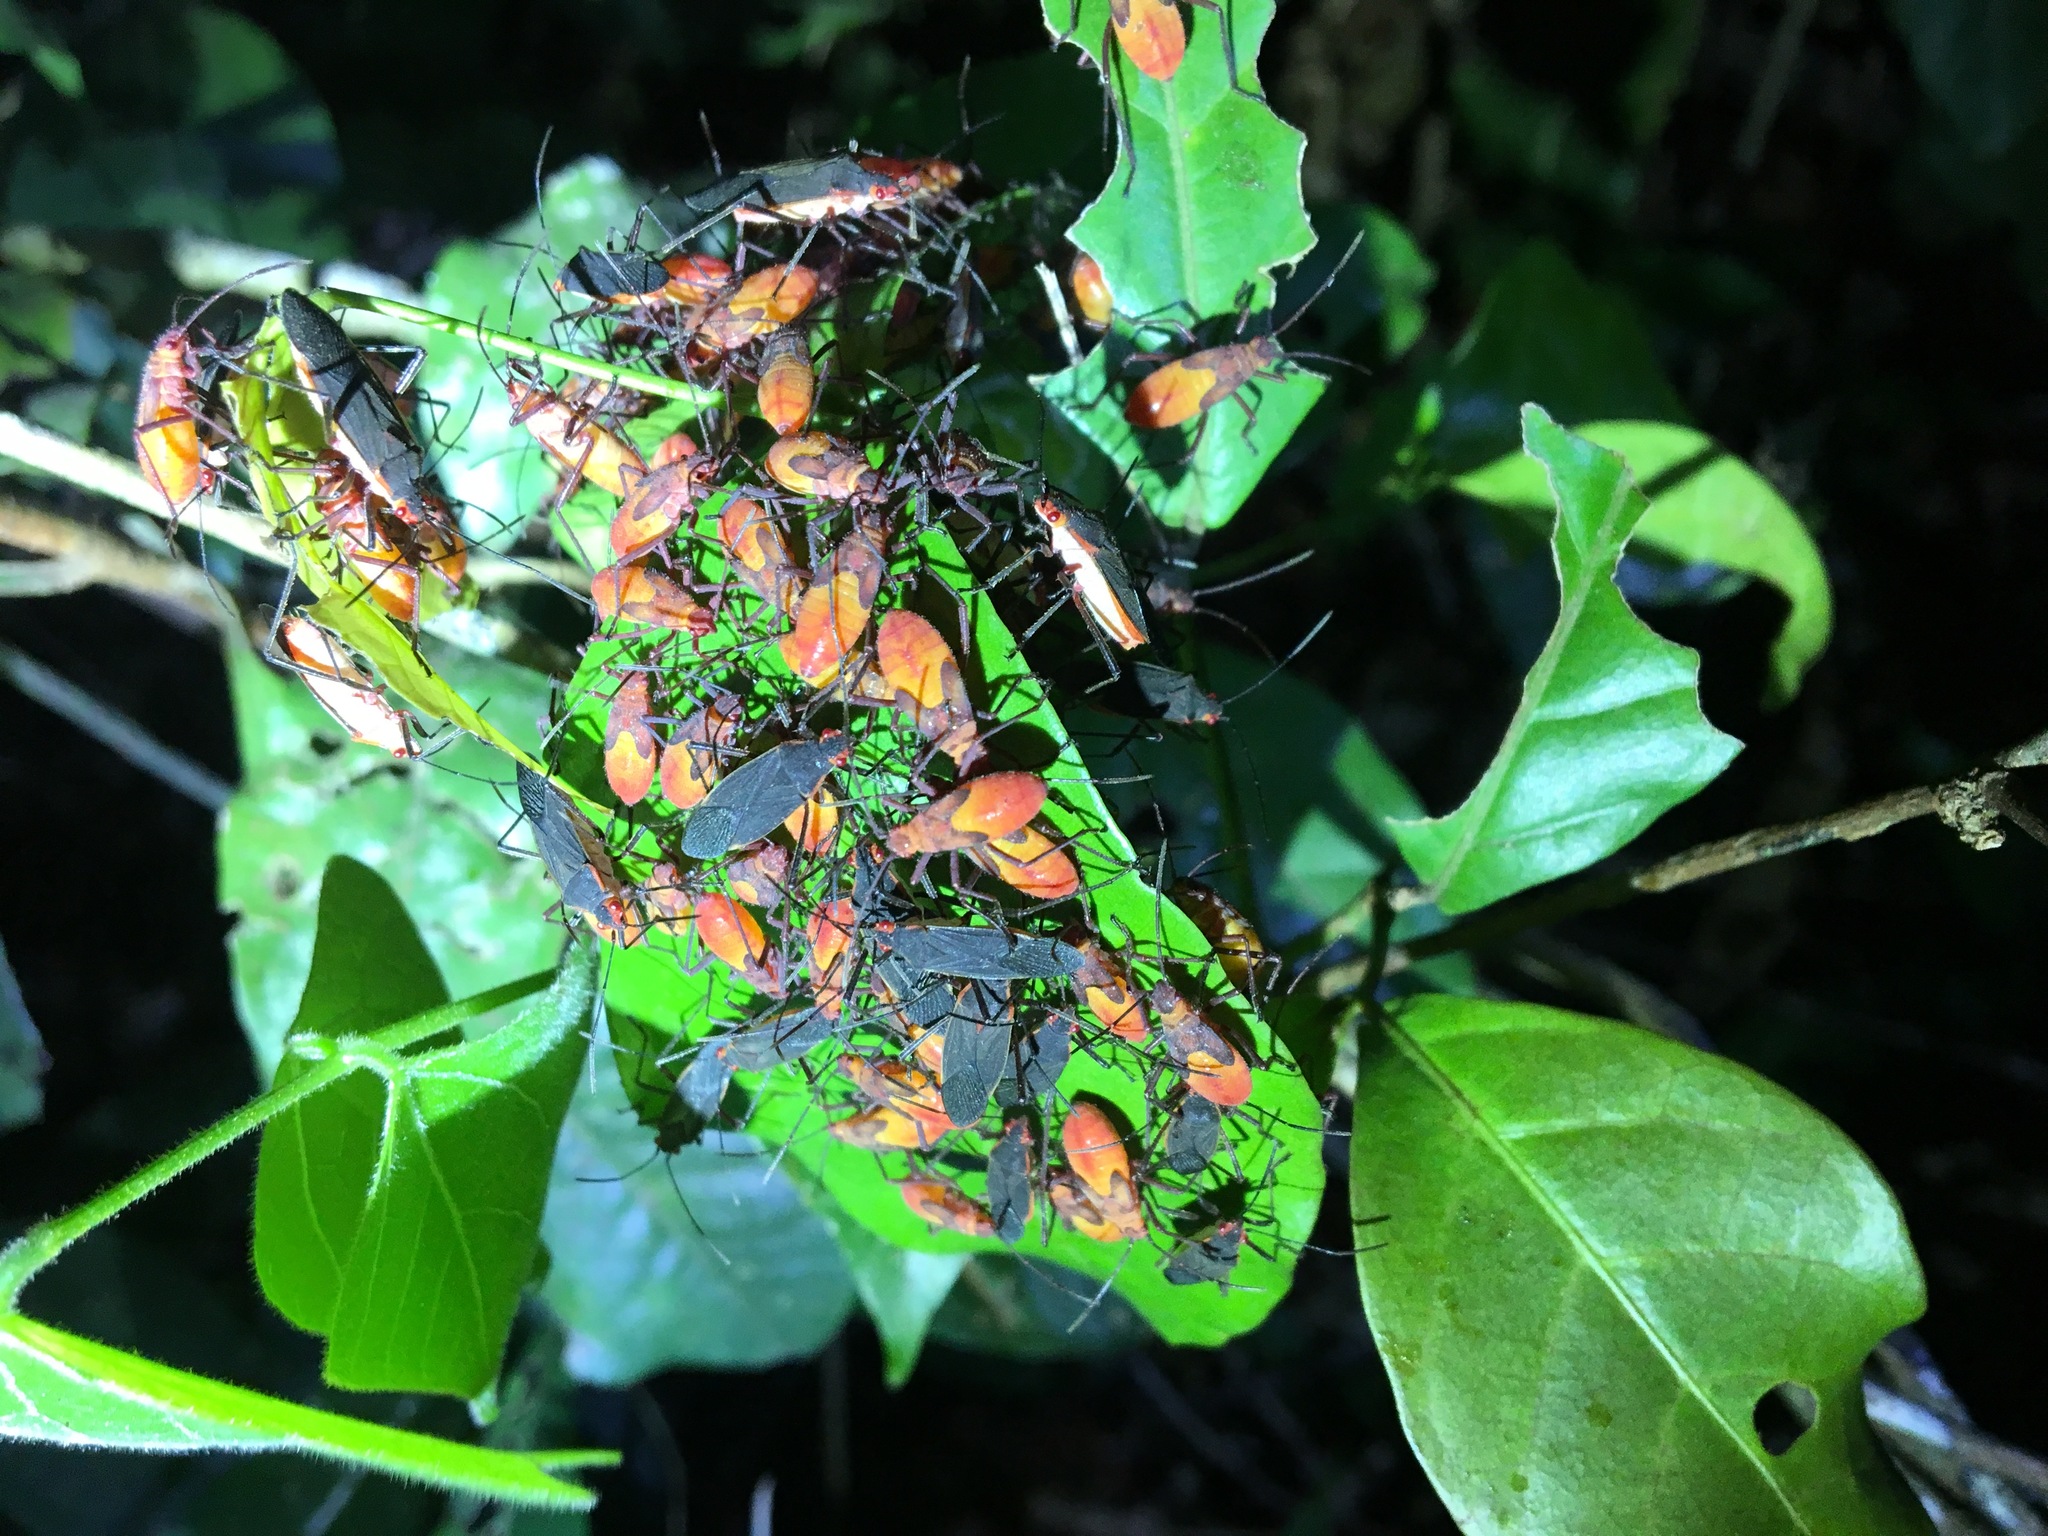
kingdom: Animalia
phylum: Arthropoda
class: Insecta
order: Hemiptera
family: Rhopalidae
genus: Jadera
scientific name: Jadera obscura
